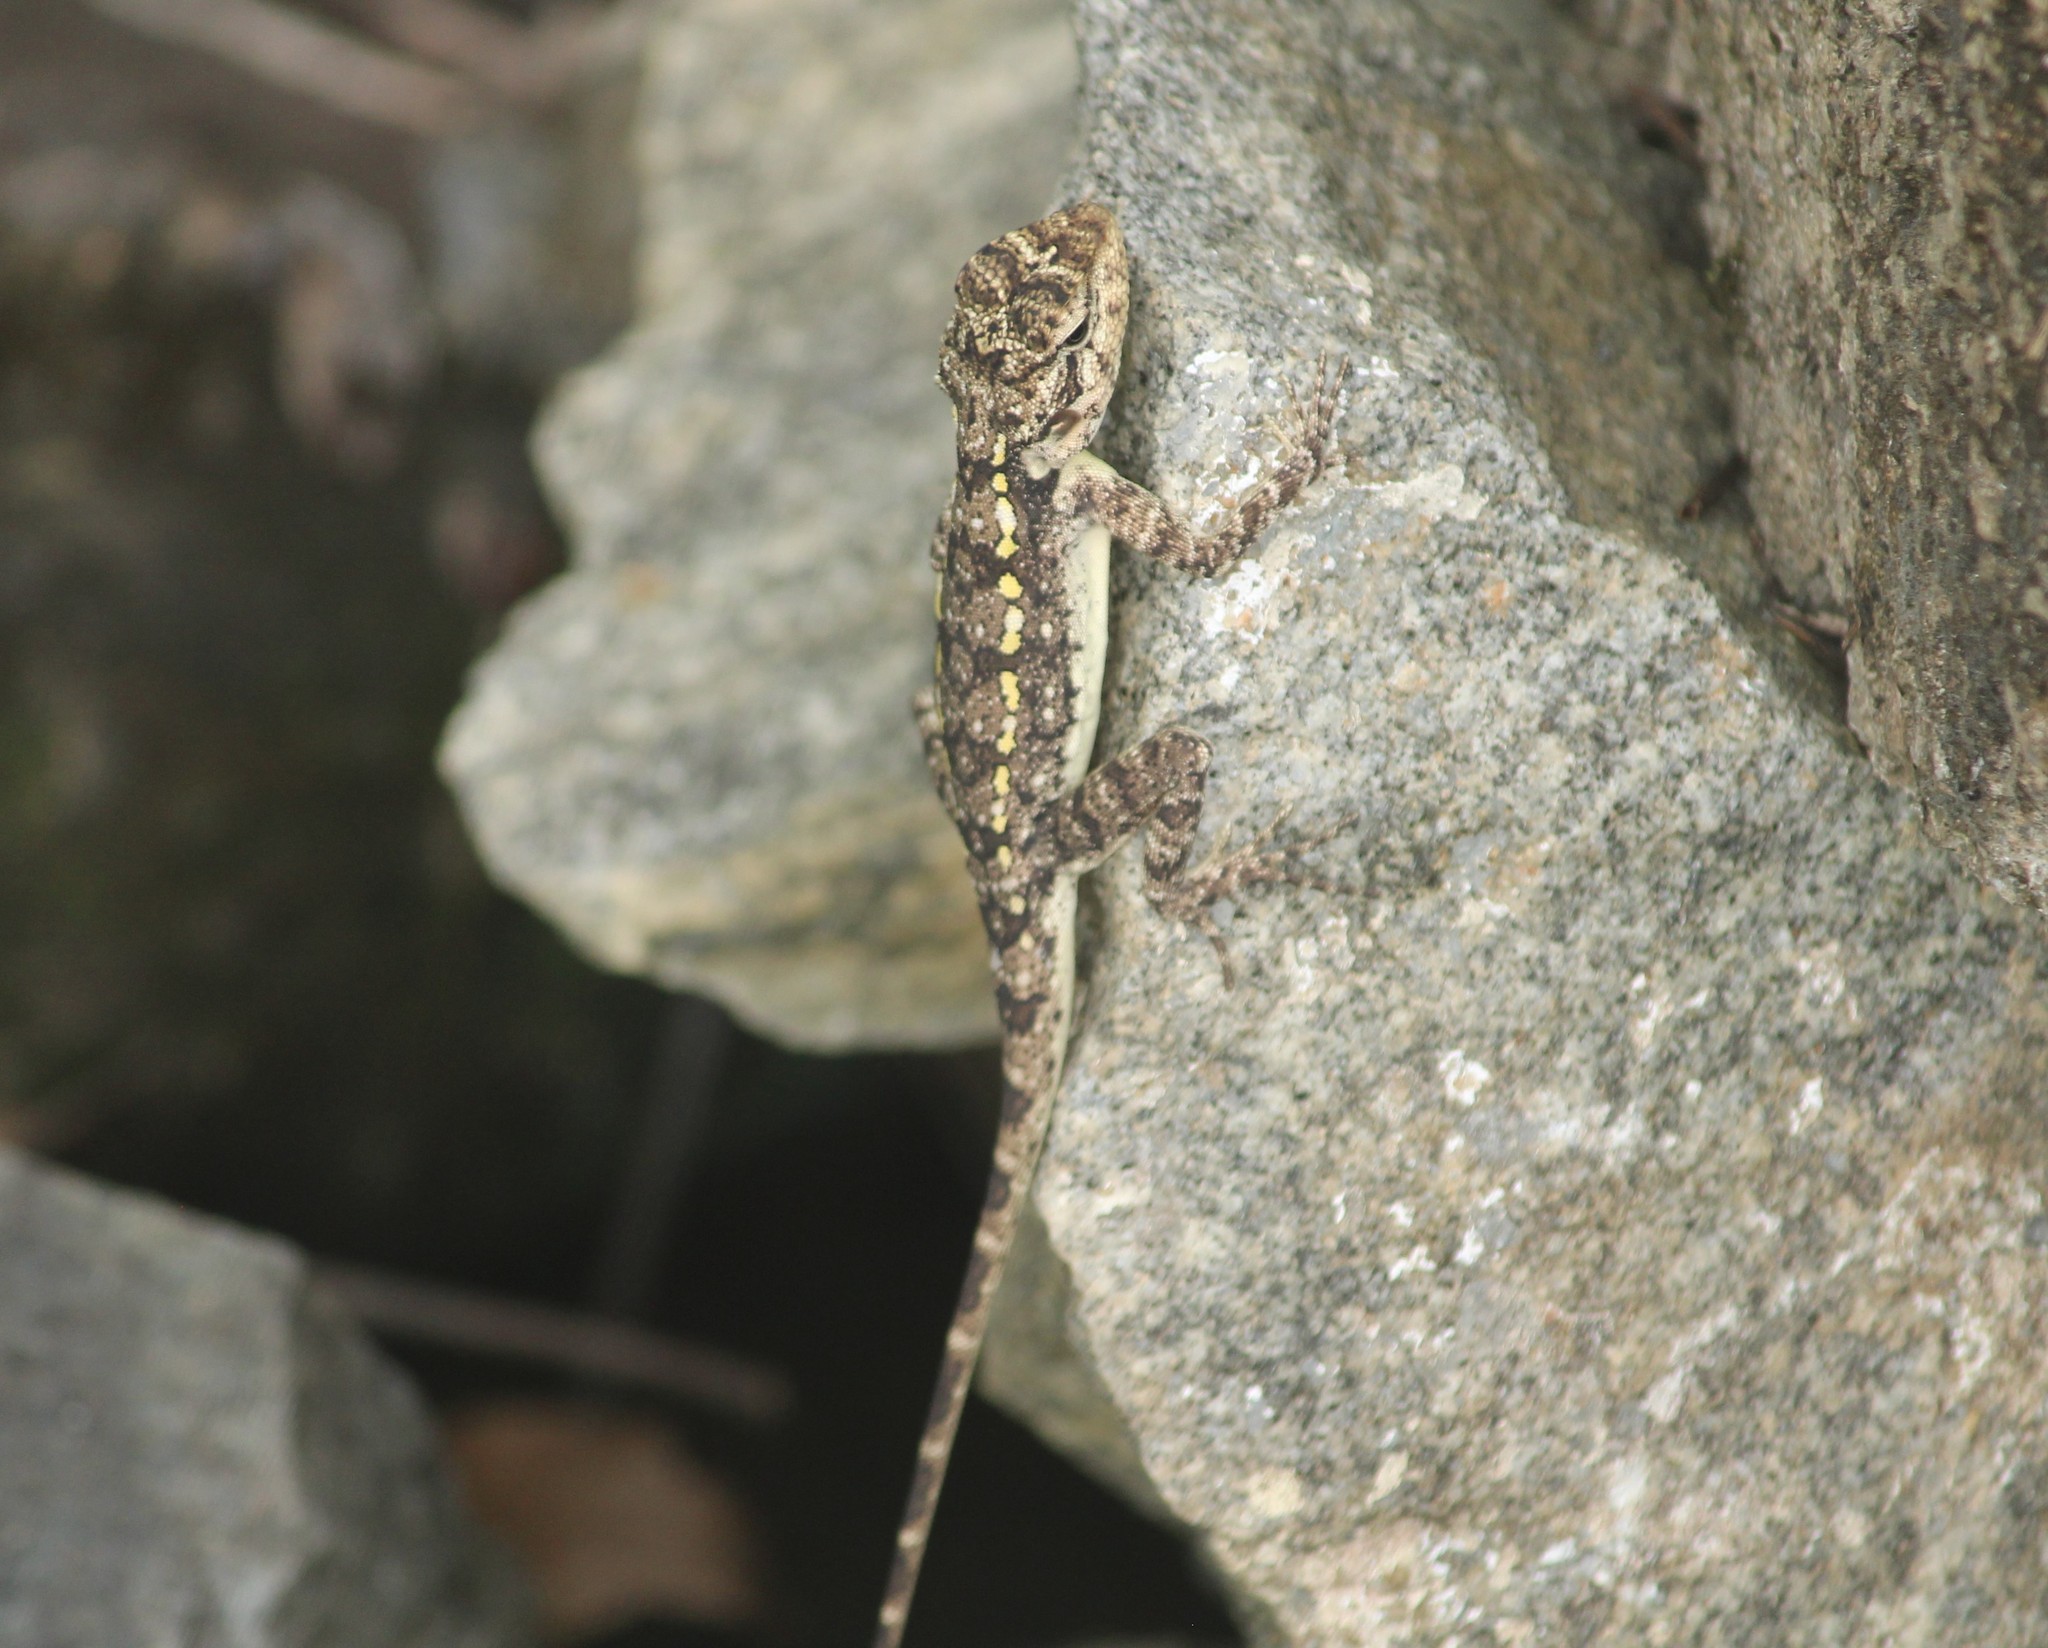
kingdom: Animalia
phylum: Chordata
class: Squamata
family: Agamidae
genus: Psammophilus
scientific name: Psammophilus dorsalis
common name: South indian rock agama
